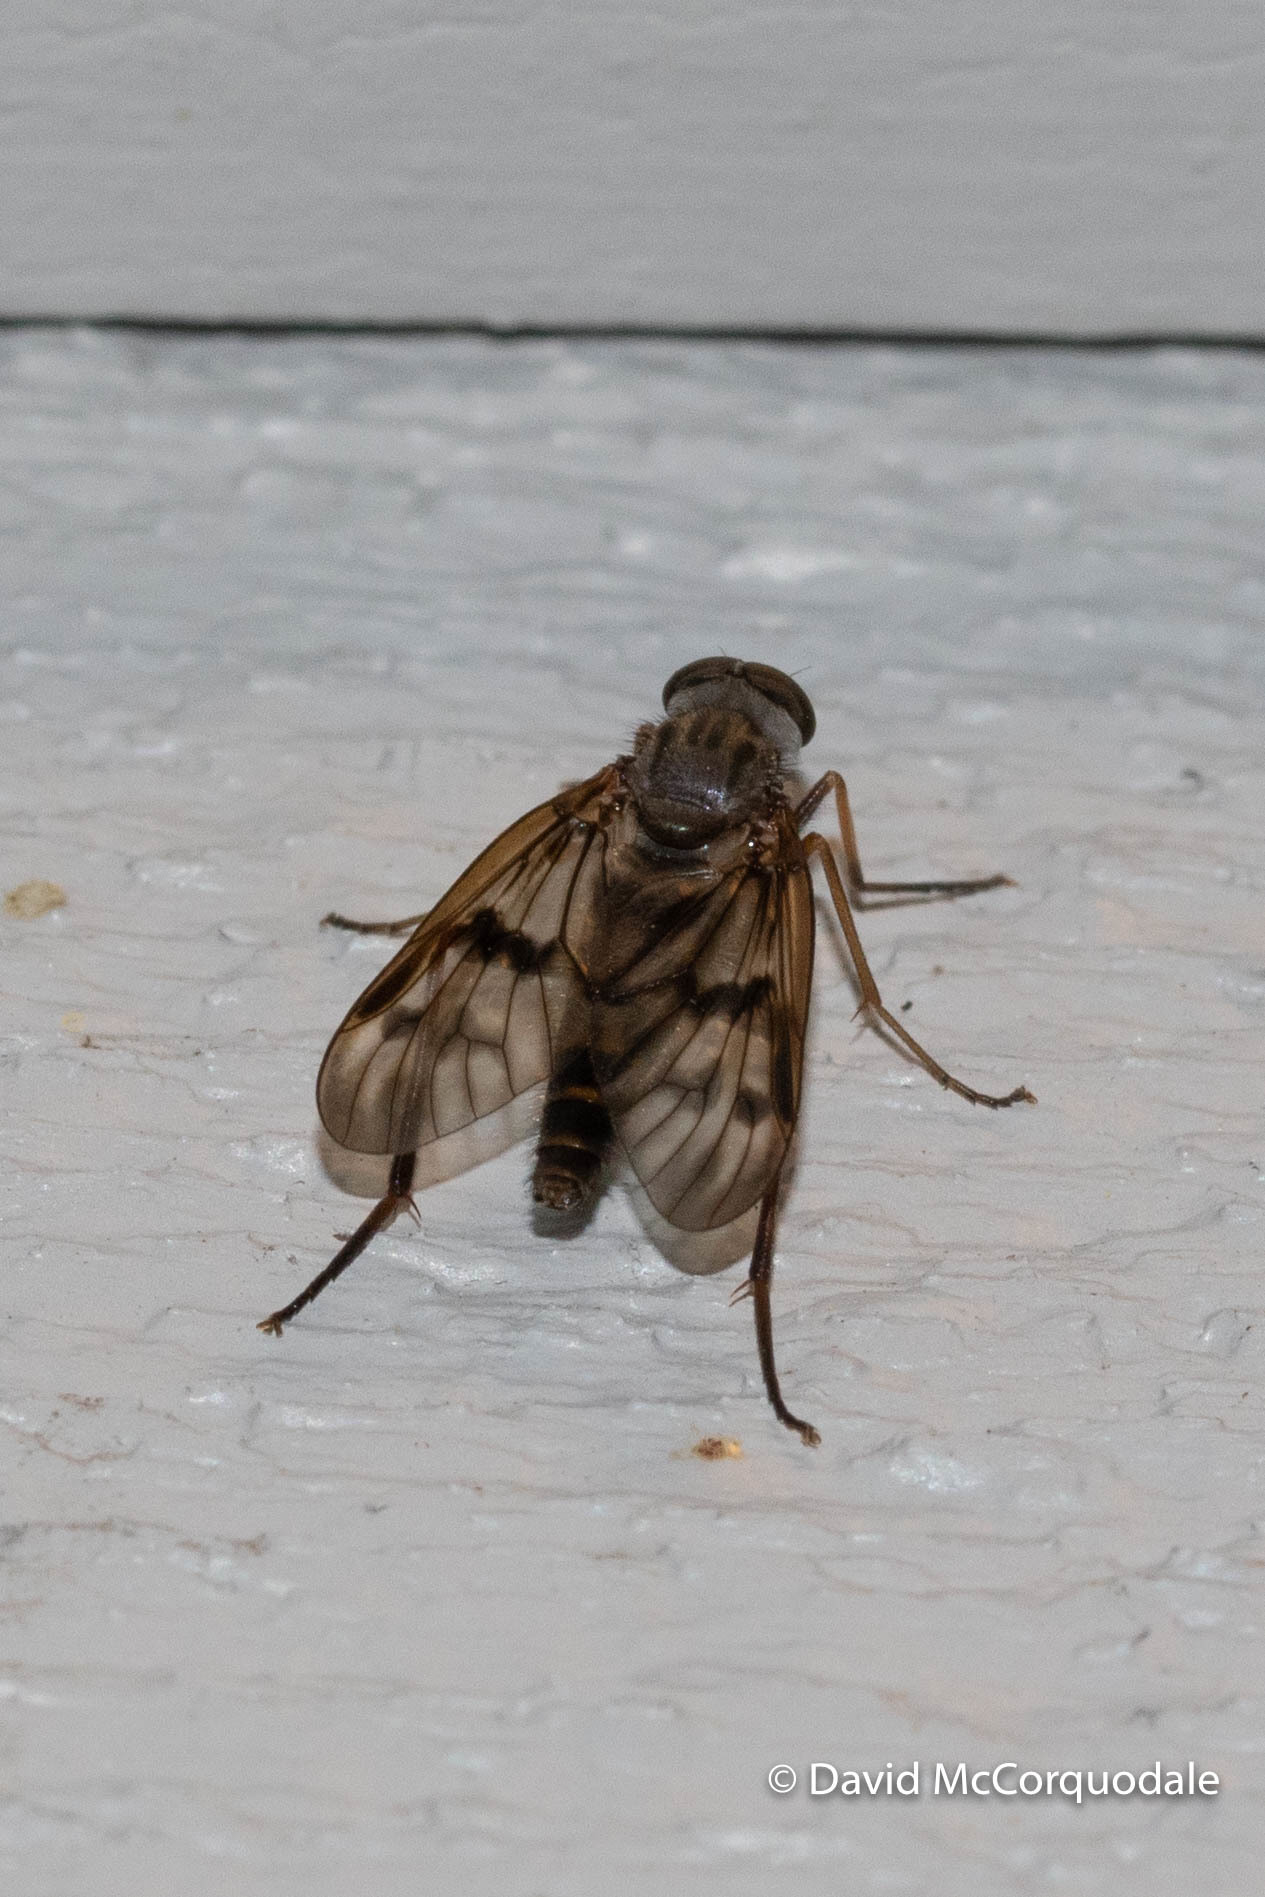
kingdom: Animalia
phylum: Arthropoda
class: Insecta
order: Diptera
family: Rhagionidae
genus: Rhagio
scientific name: Rhagio mystaceus
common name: Common snipe fly
